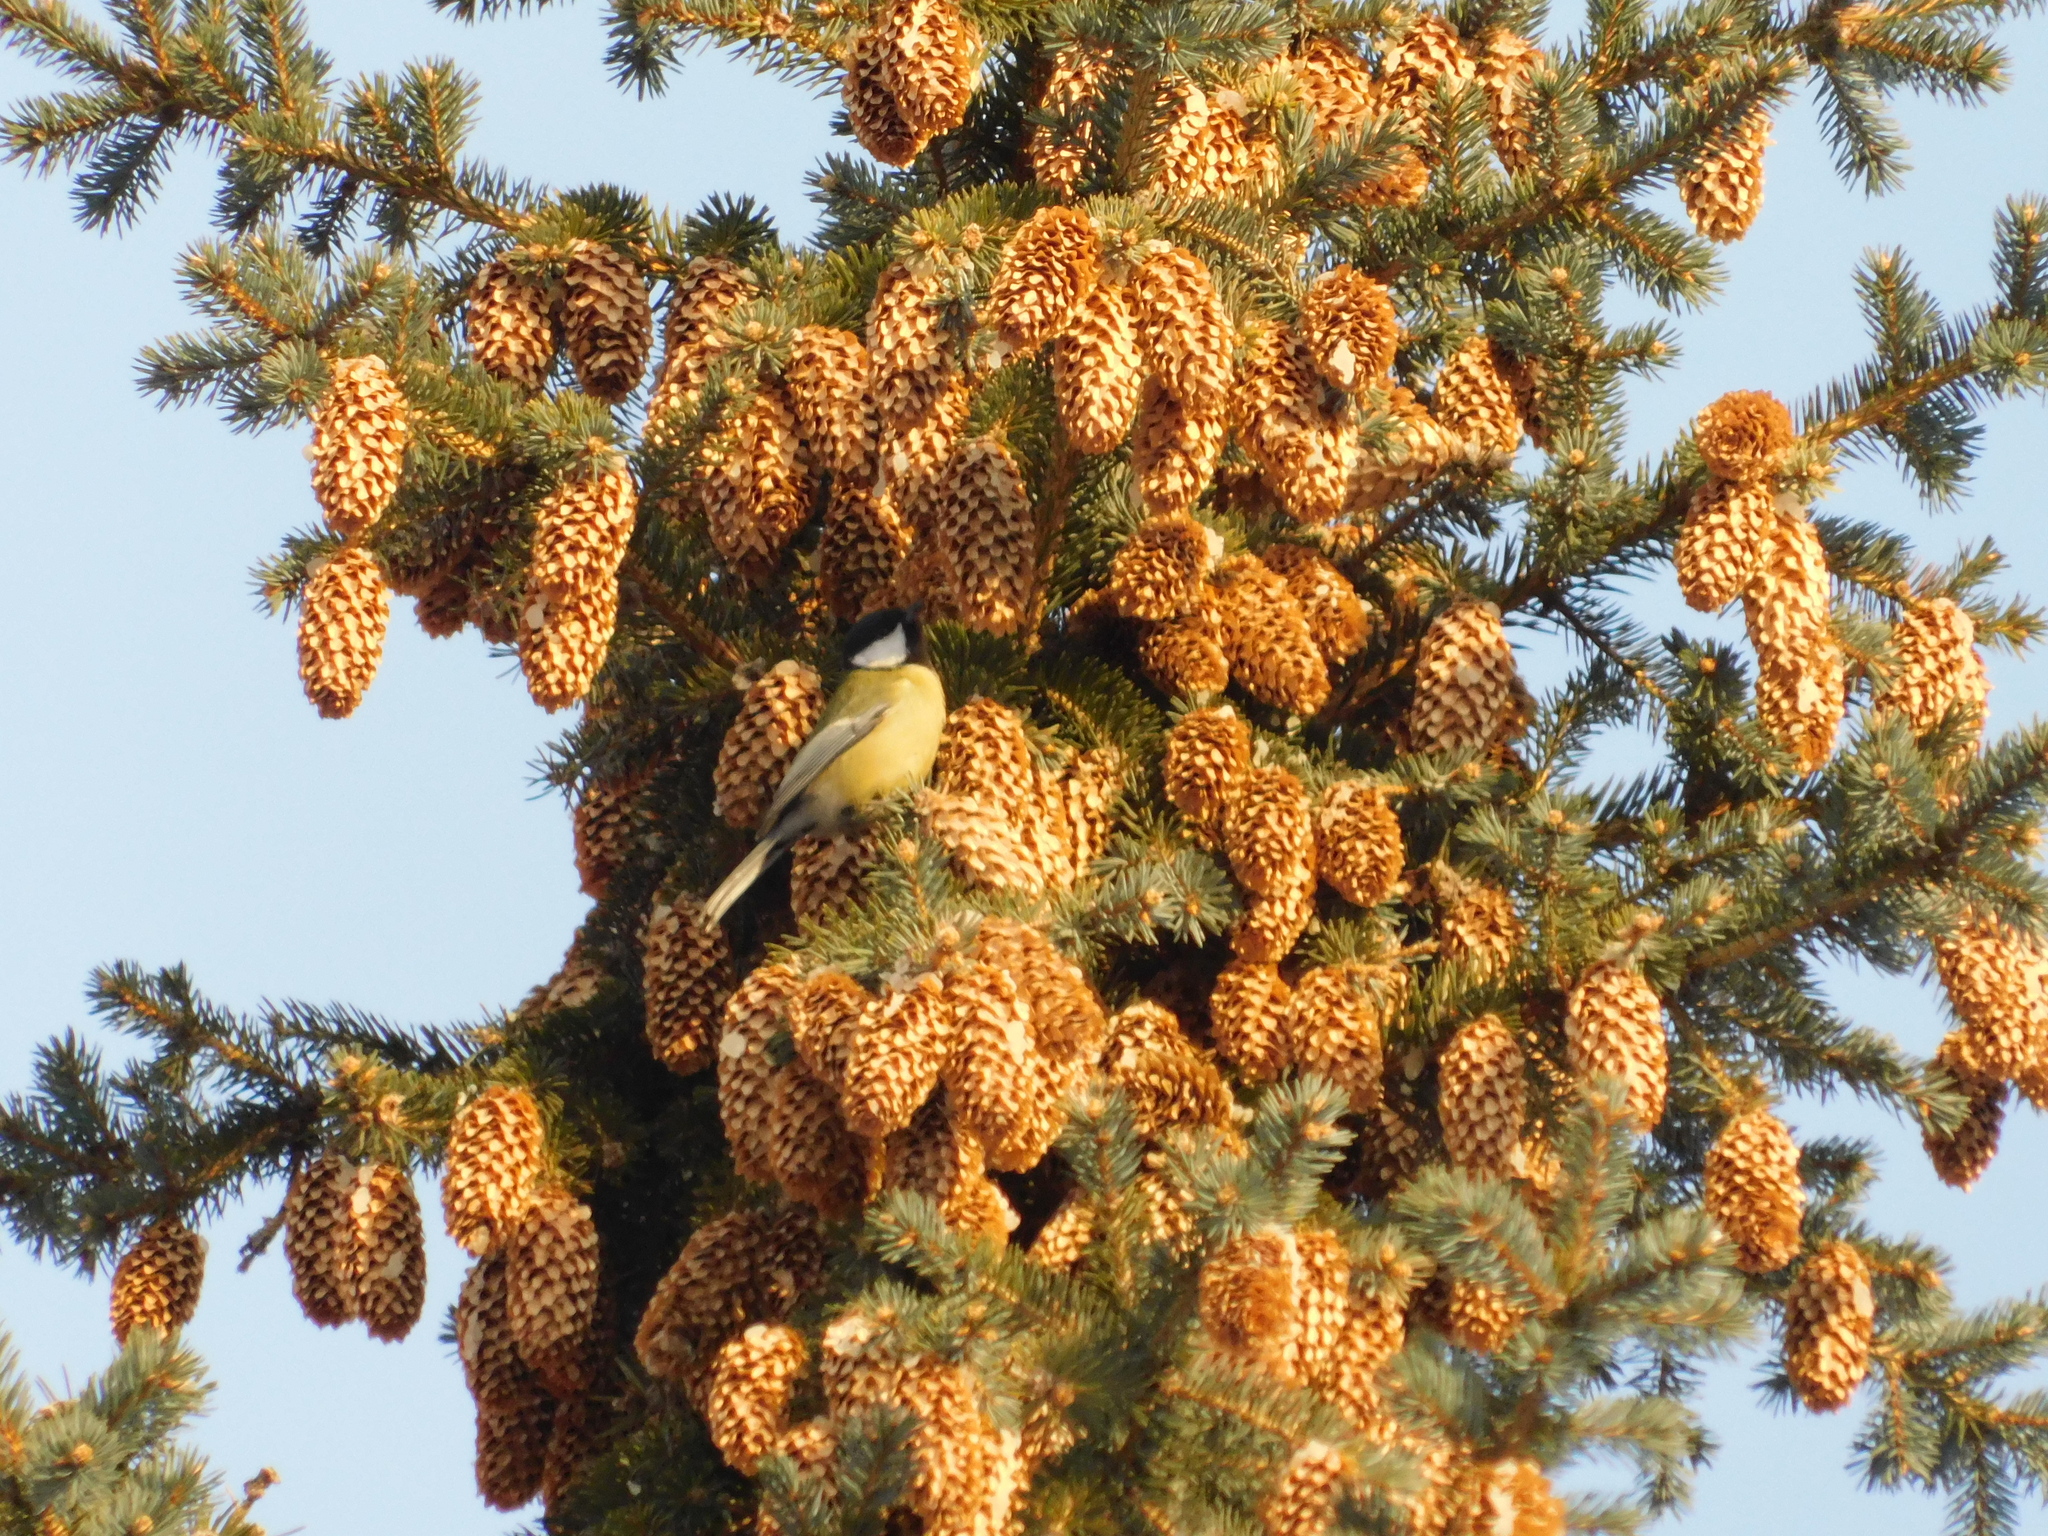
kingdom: Animalia
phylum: Chordata
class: Aves
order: Passeriformes
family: Paridae
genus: Parus
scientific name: Parus major
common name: Great tit
